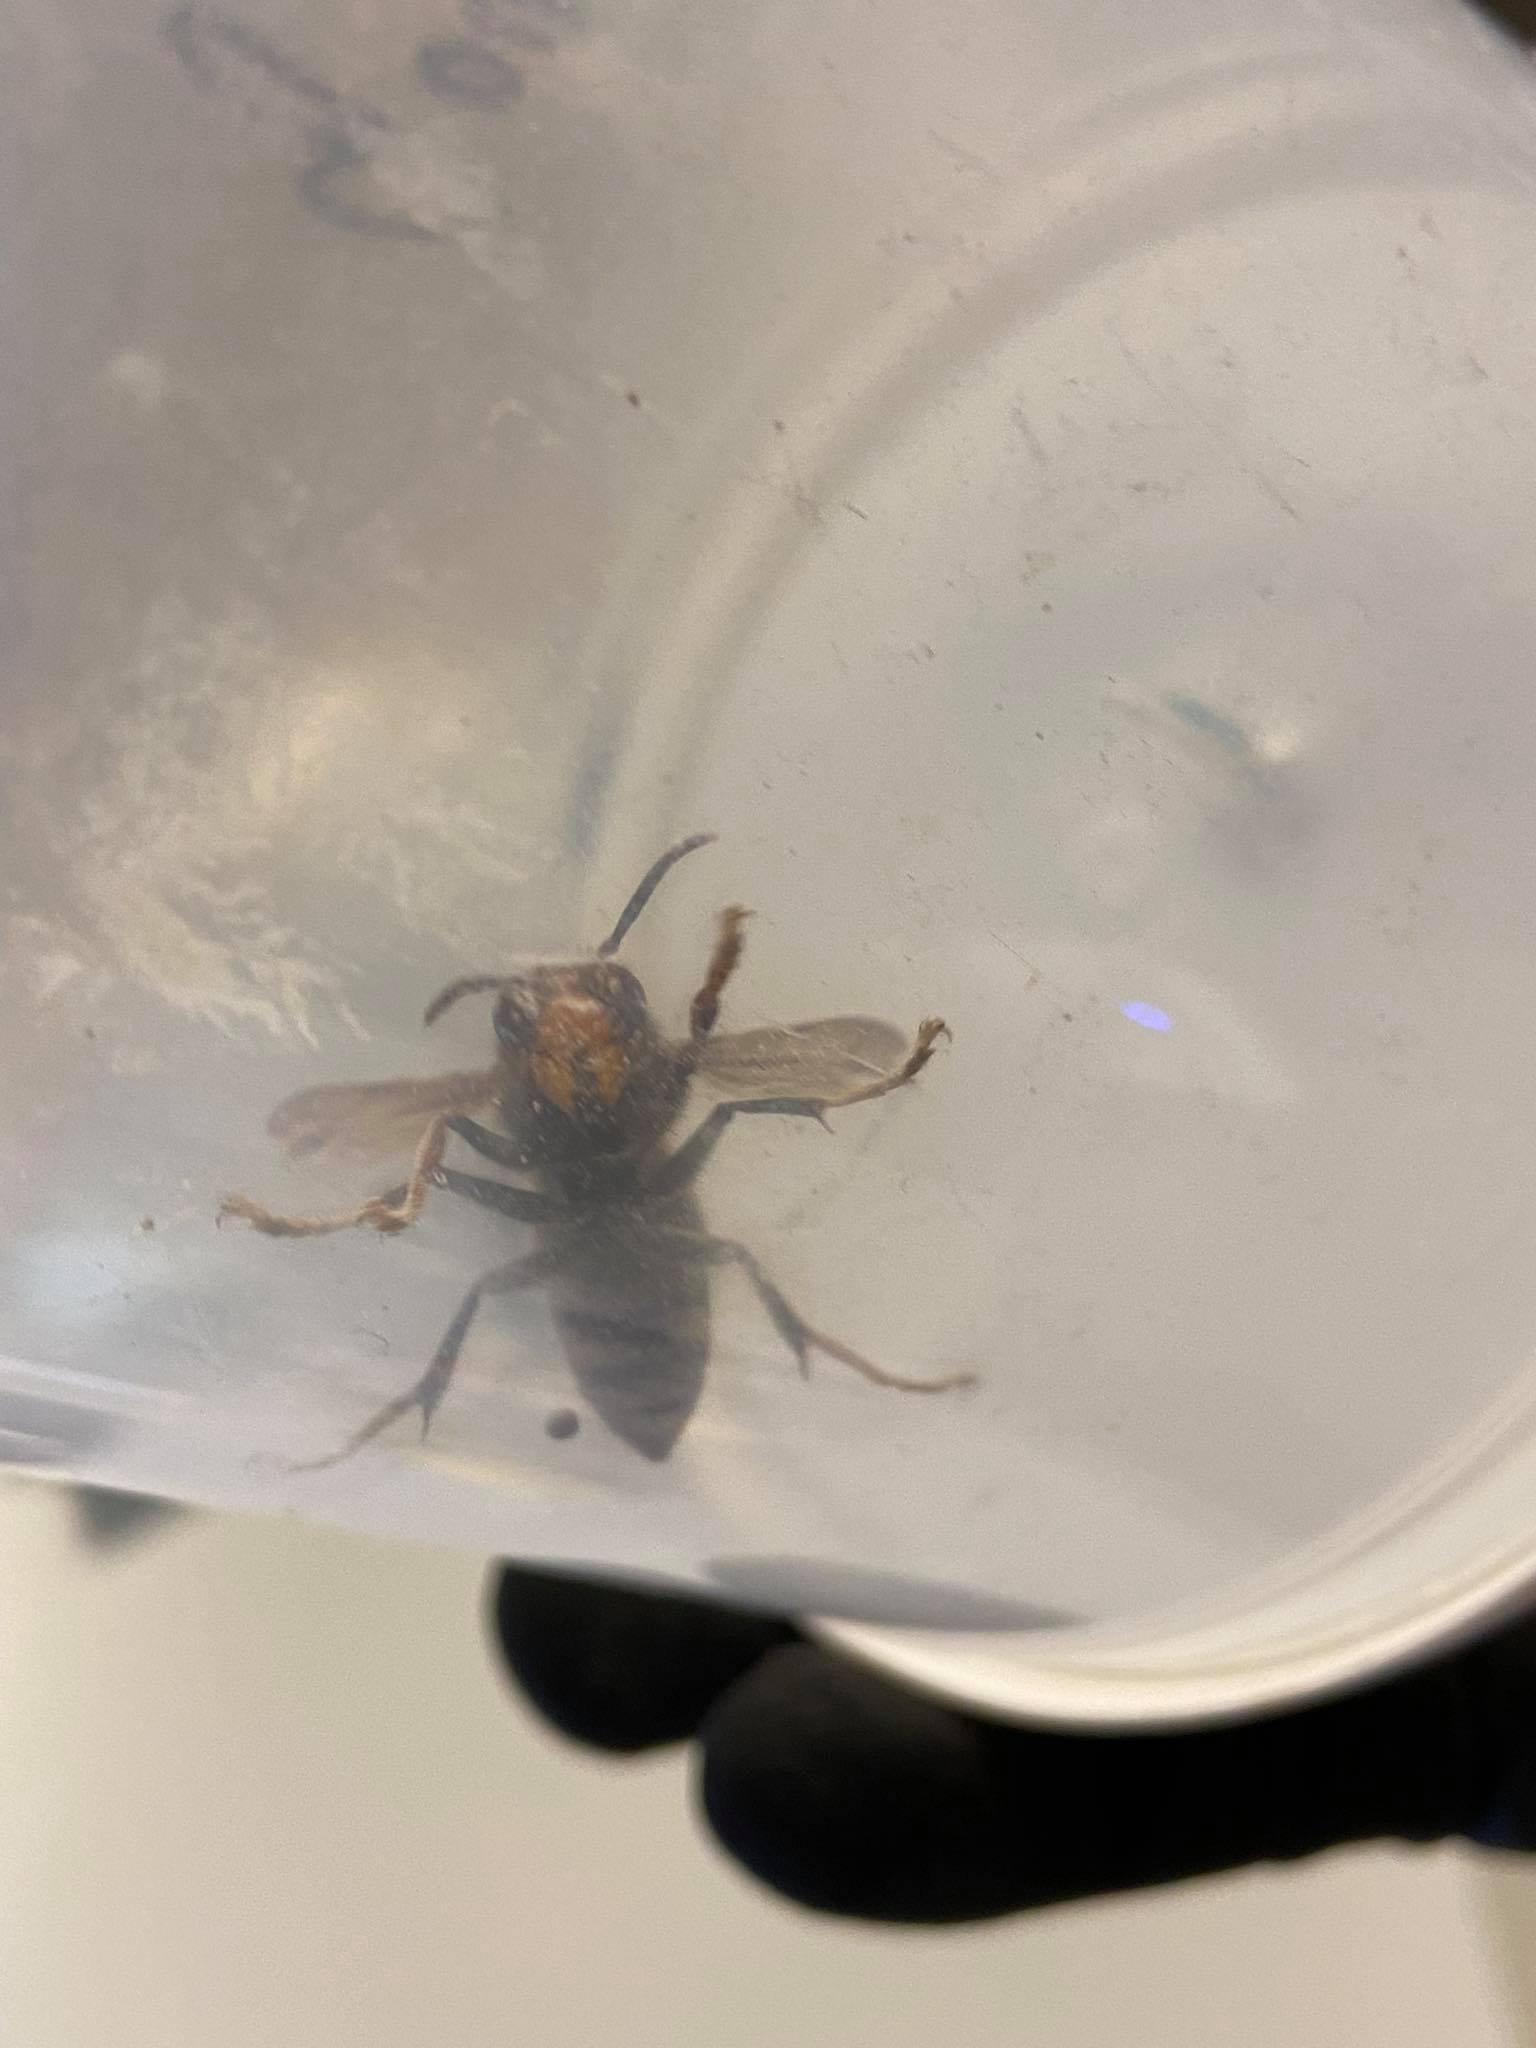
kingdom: Animalia
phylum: Arthropoda
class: Insecta
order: Hymenoptera
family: Vespidae
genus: Vespa
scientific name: Vespa velutina
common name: Asian hornet
